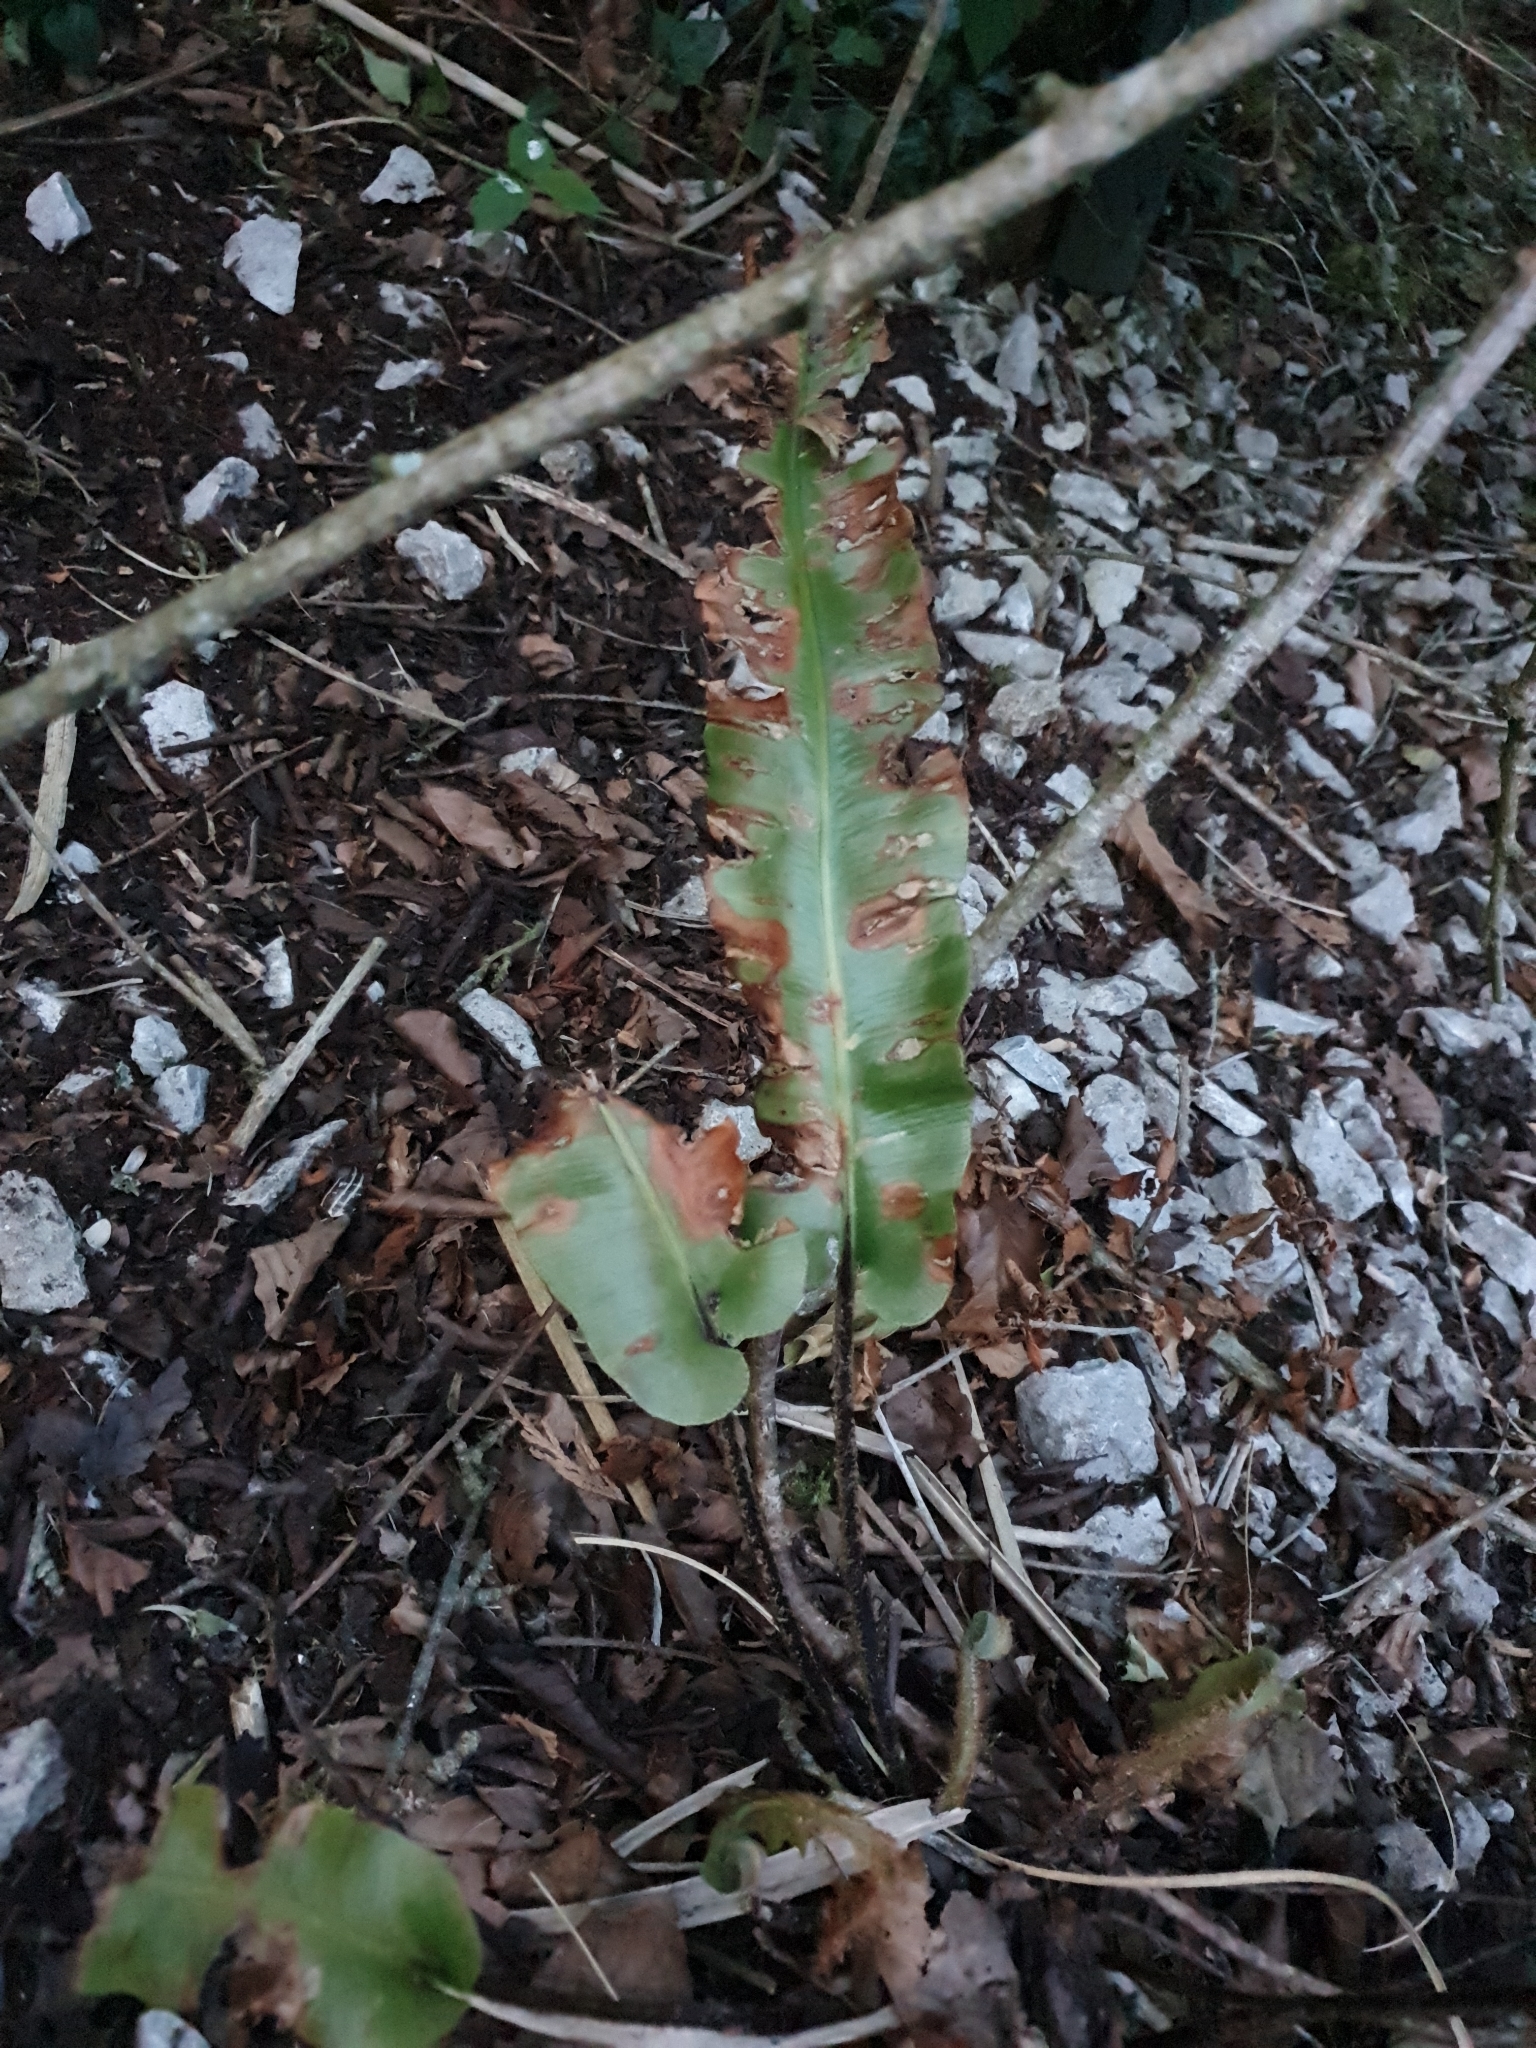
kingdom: Plantae
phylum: Tracheophyta
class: Polypodiopsida
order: Polypodiales
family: Aspleniaceae
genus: Asplenium
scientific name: Asplenium scolopendrium
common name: Hart's-tongue fern
